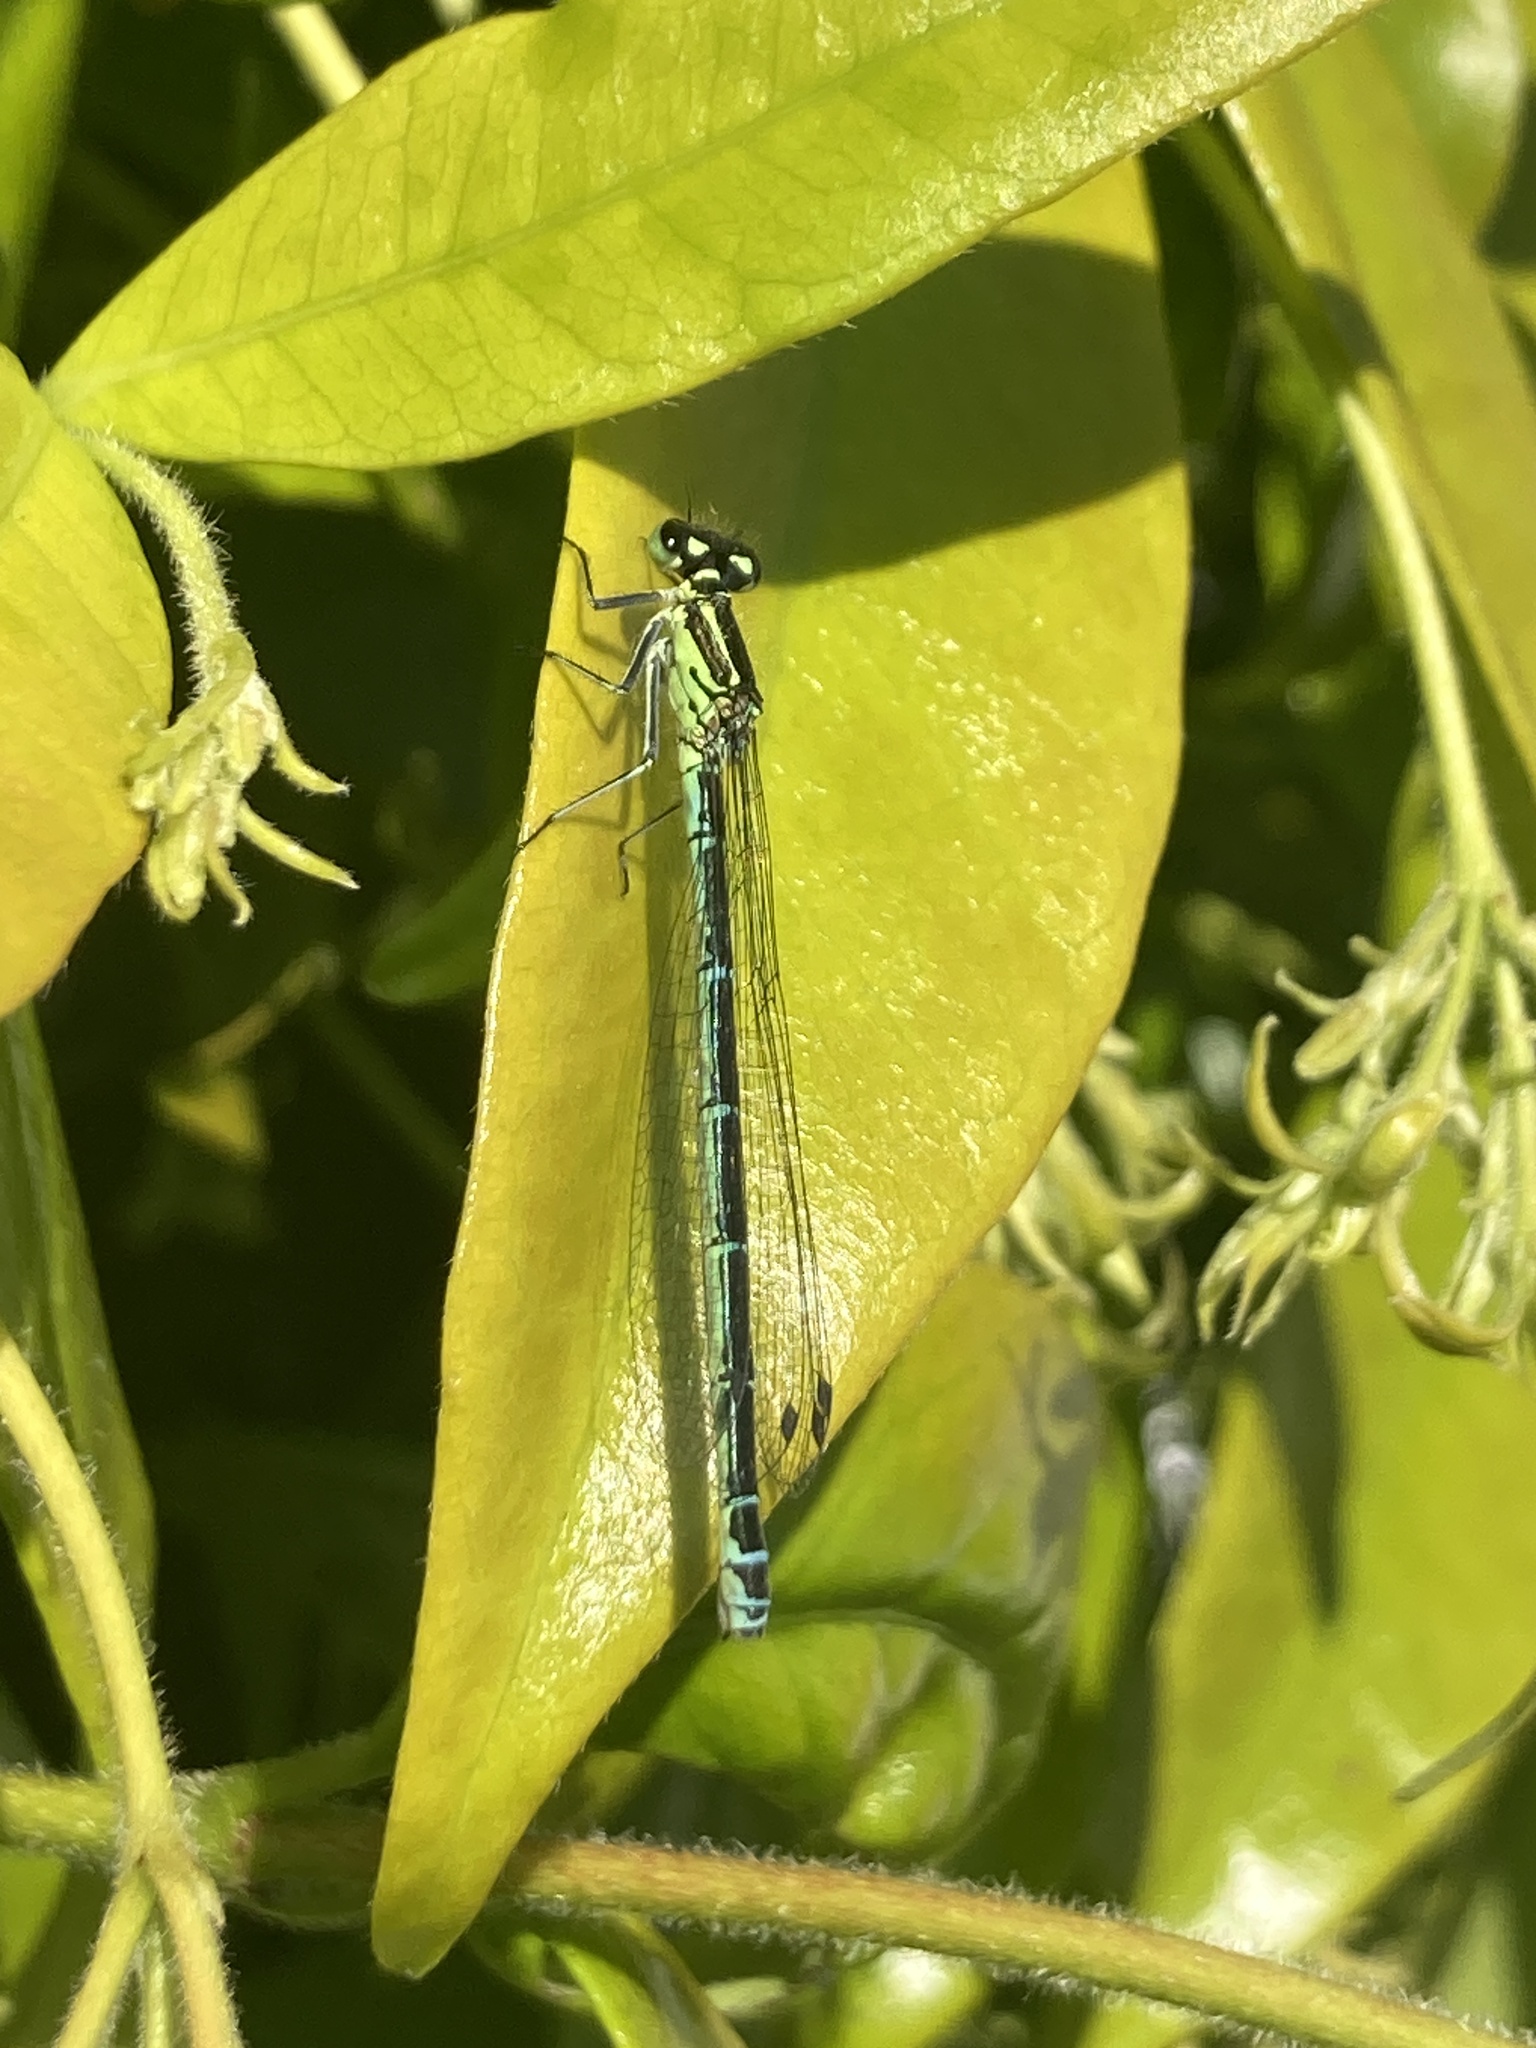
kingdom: Animalia
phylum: Arthropoda
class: Insecta
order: Odonata
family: Coenagrionidae
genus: Coenagrion
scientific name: Coenagrion puella
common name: Azure damselfly
